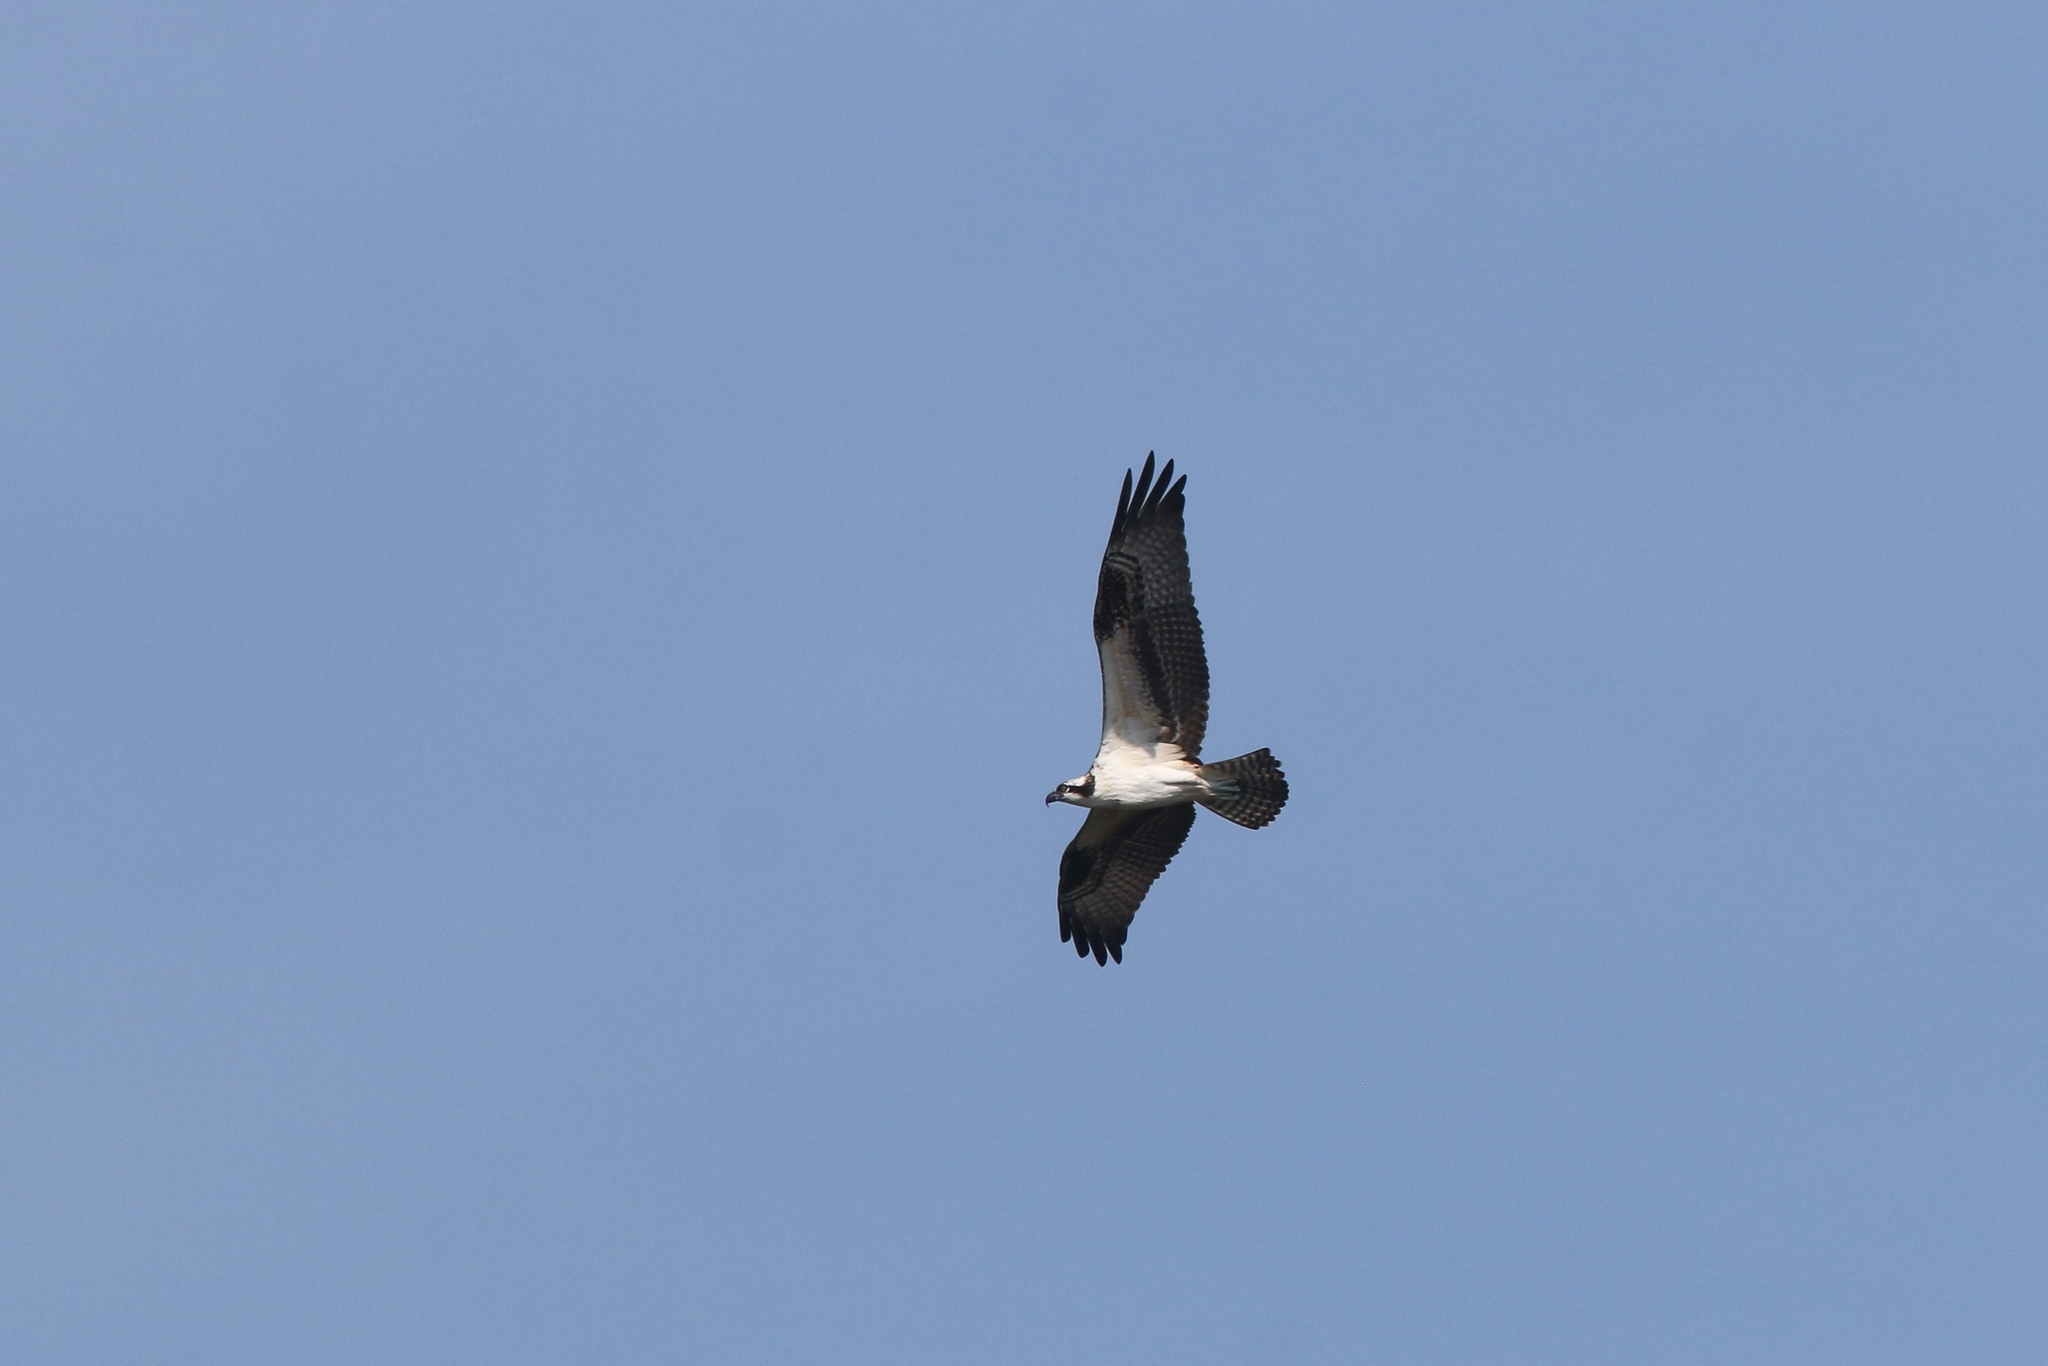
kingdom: Animalia
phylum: Chordata
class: Aves
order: Accipitriformes
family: Pandionidae
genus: Pandion
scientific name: Pandion haliaetus
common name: Osprey
